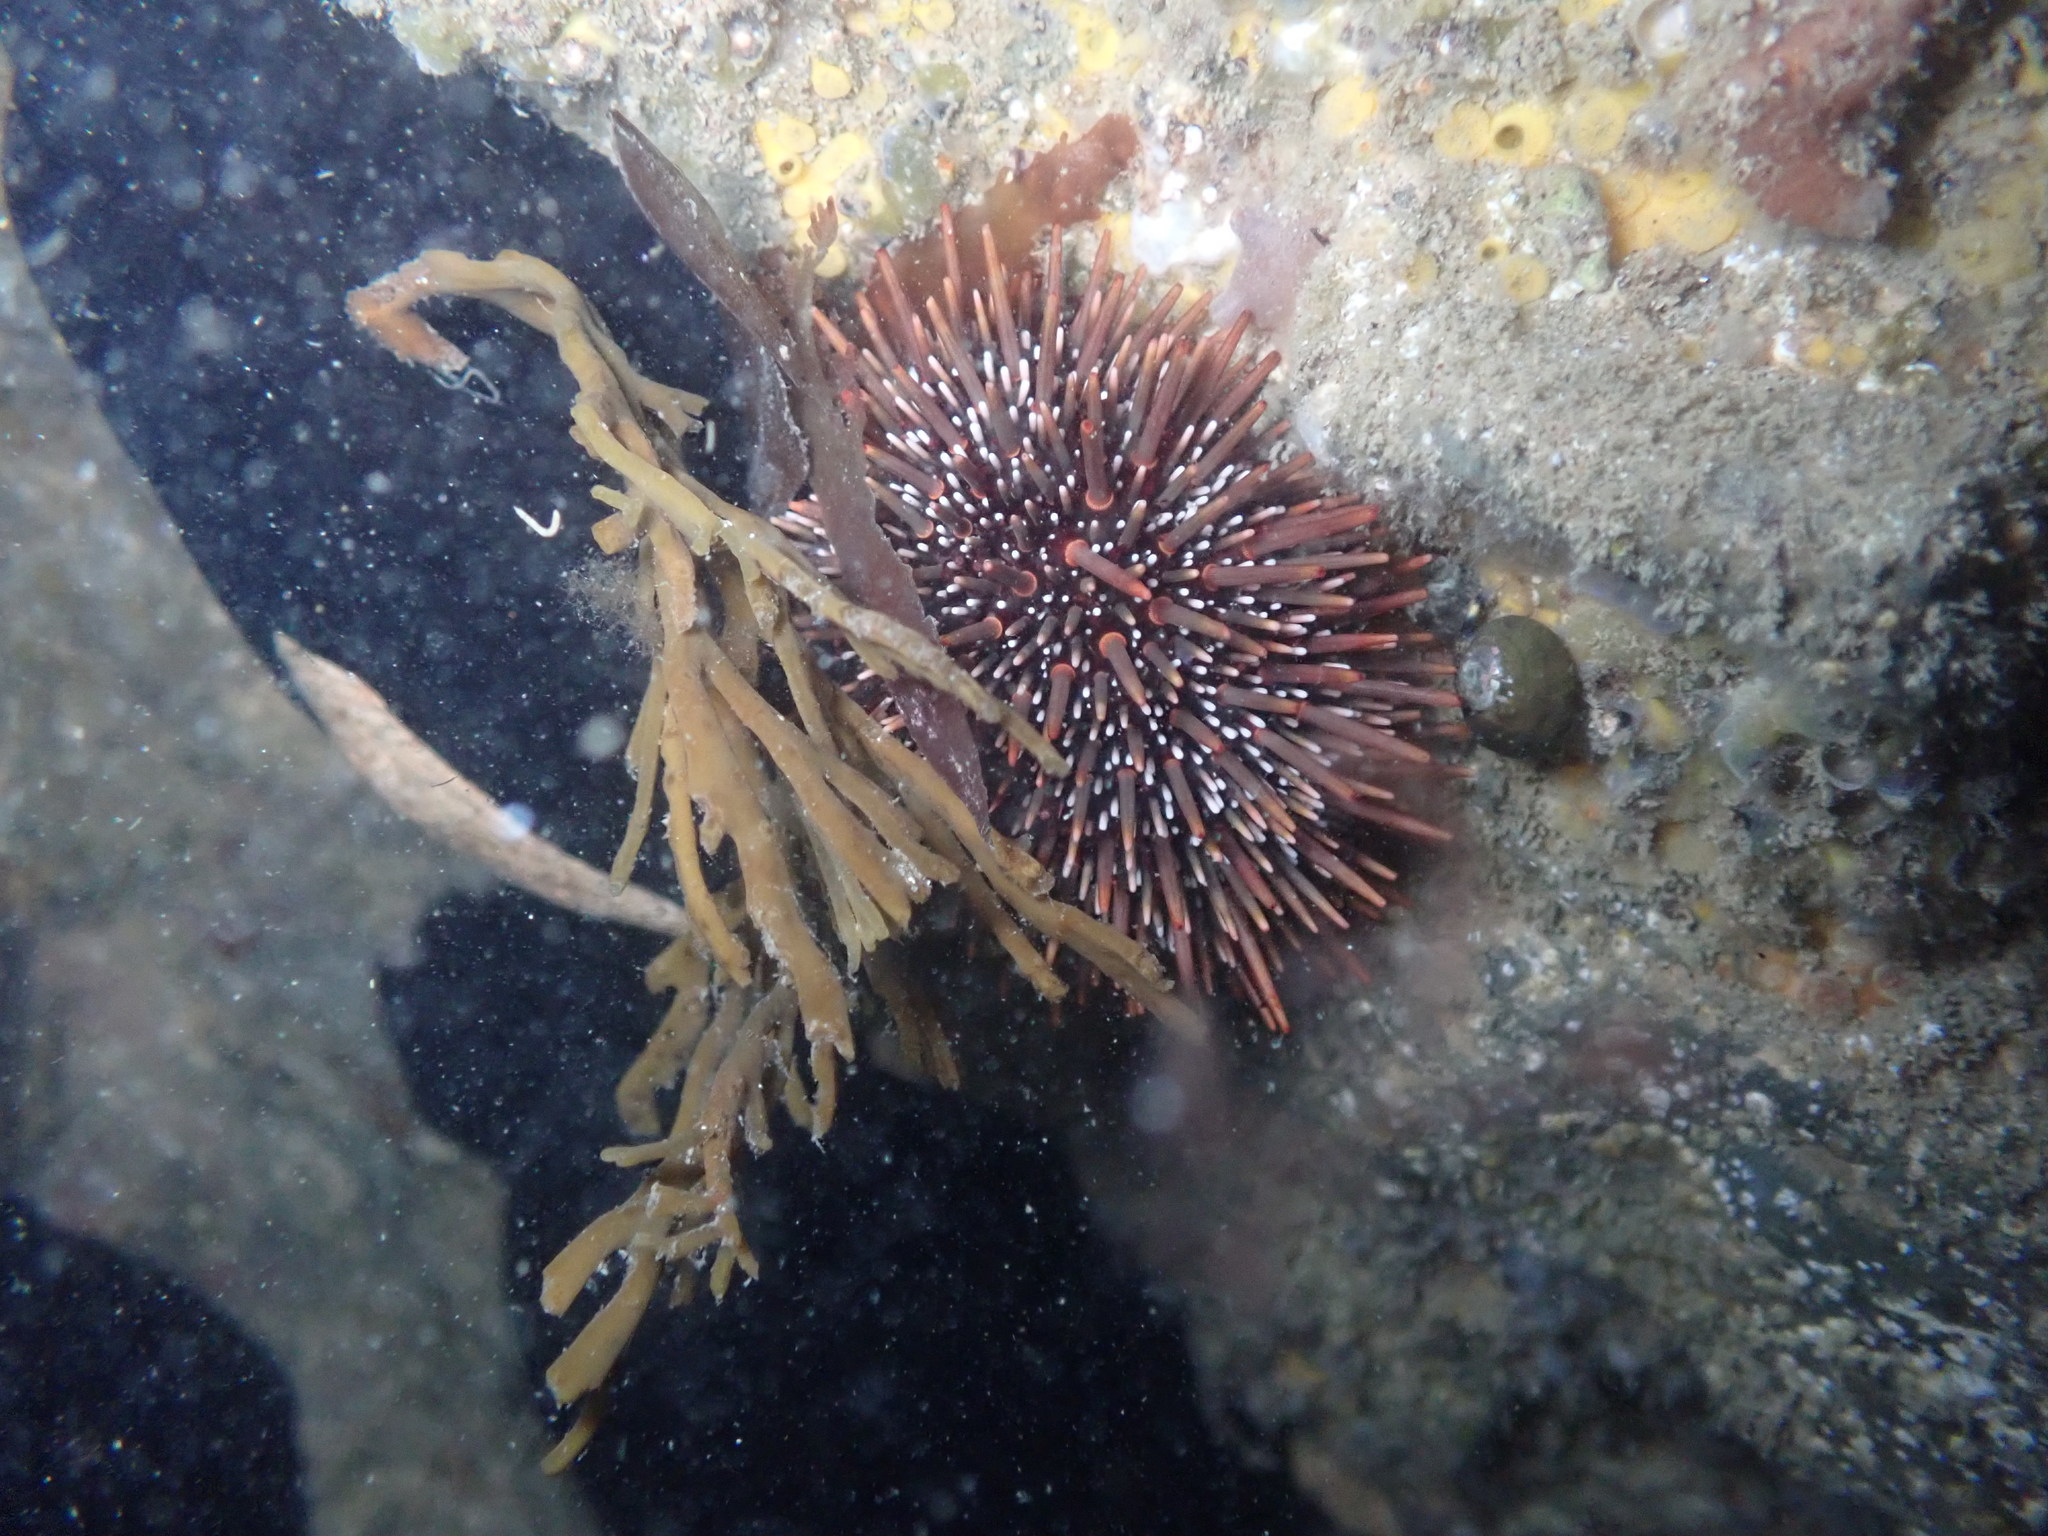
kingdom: Animalia
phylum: Echinodermata
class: Echinoidea
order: Camarodonta
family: Echinometridae
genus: Evechinus
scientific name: Evechinus chloroticus
